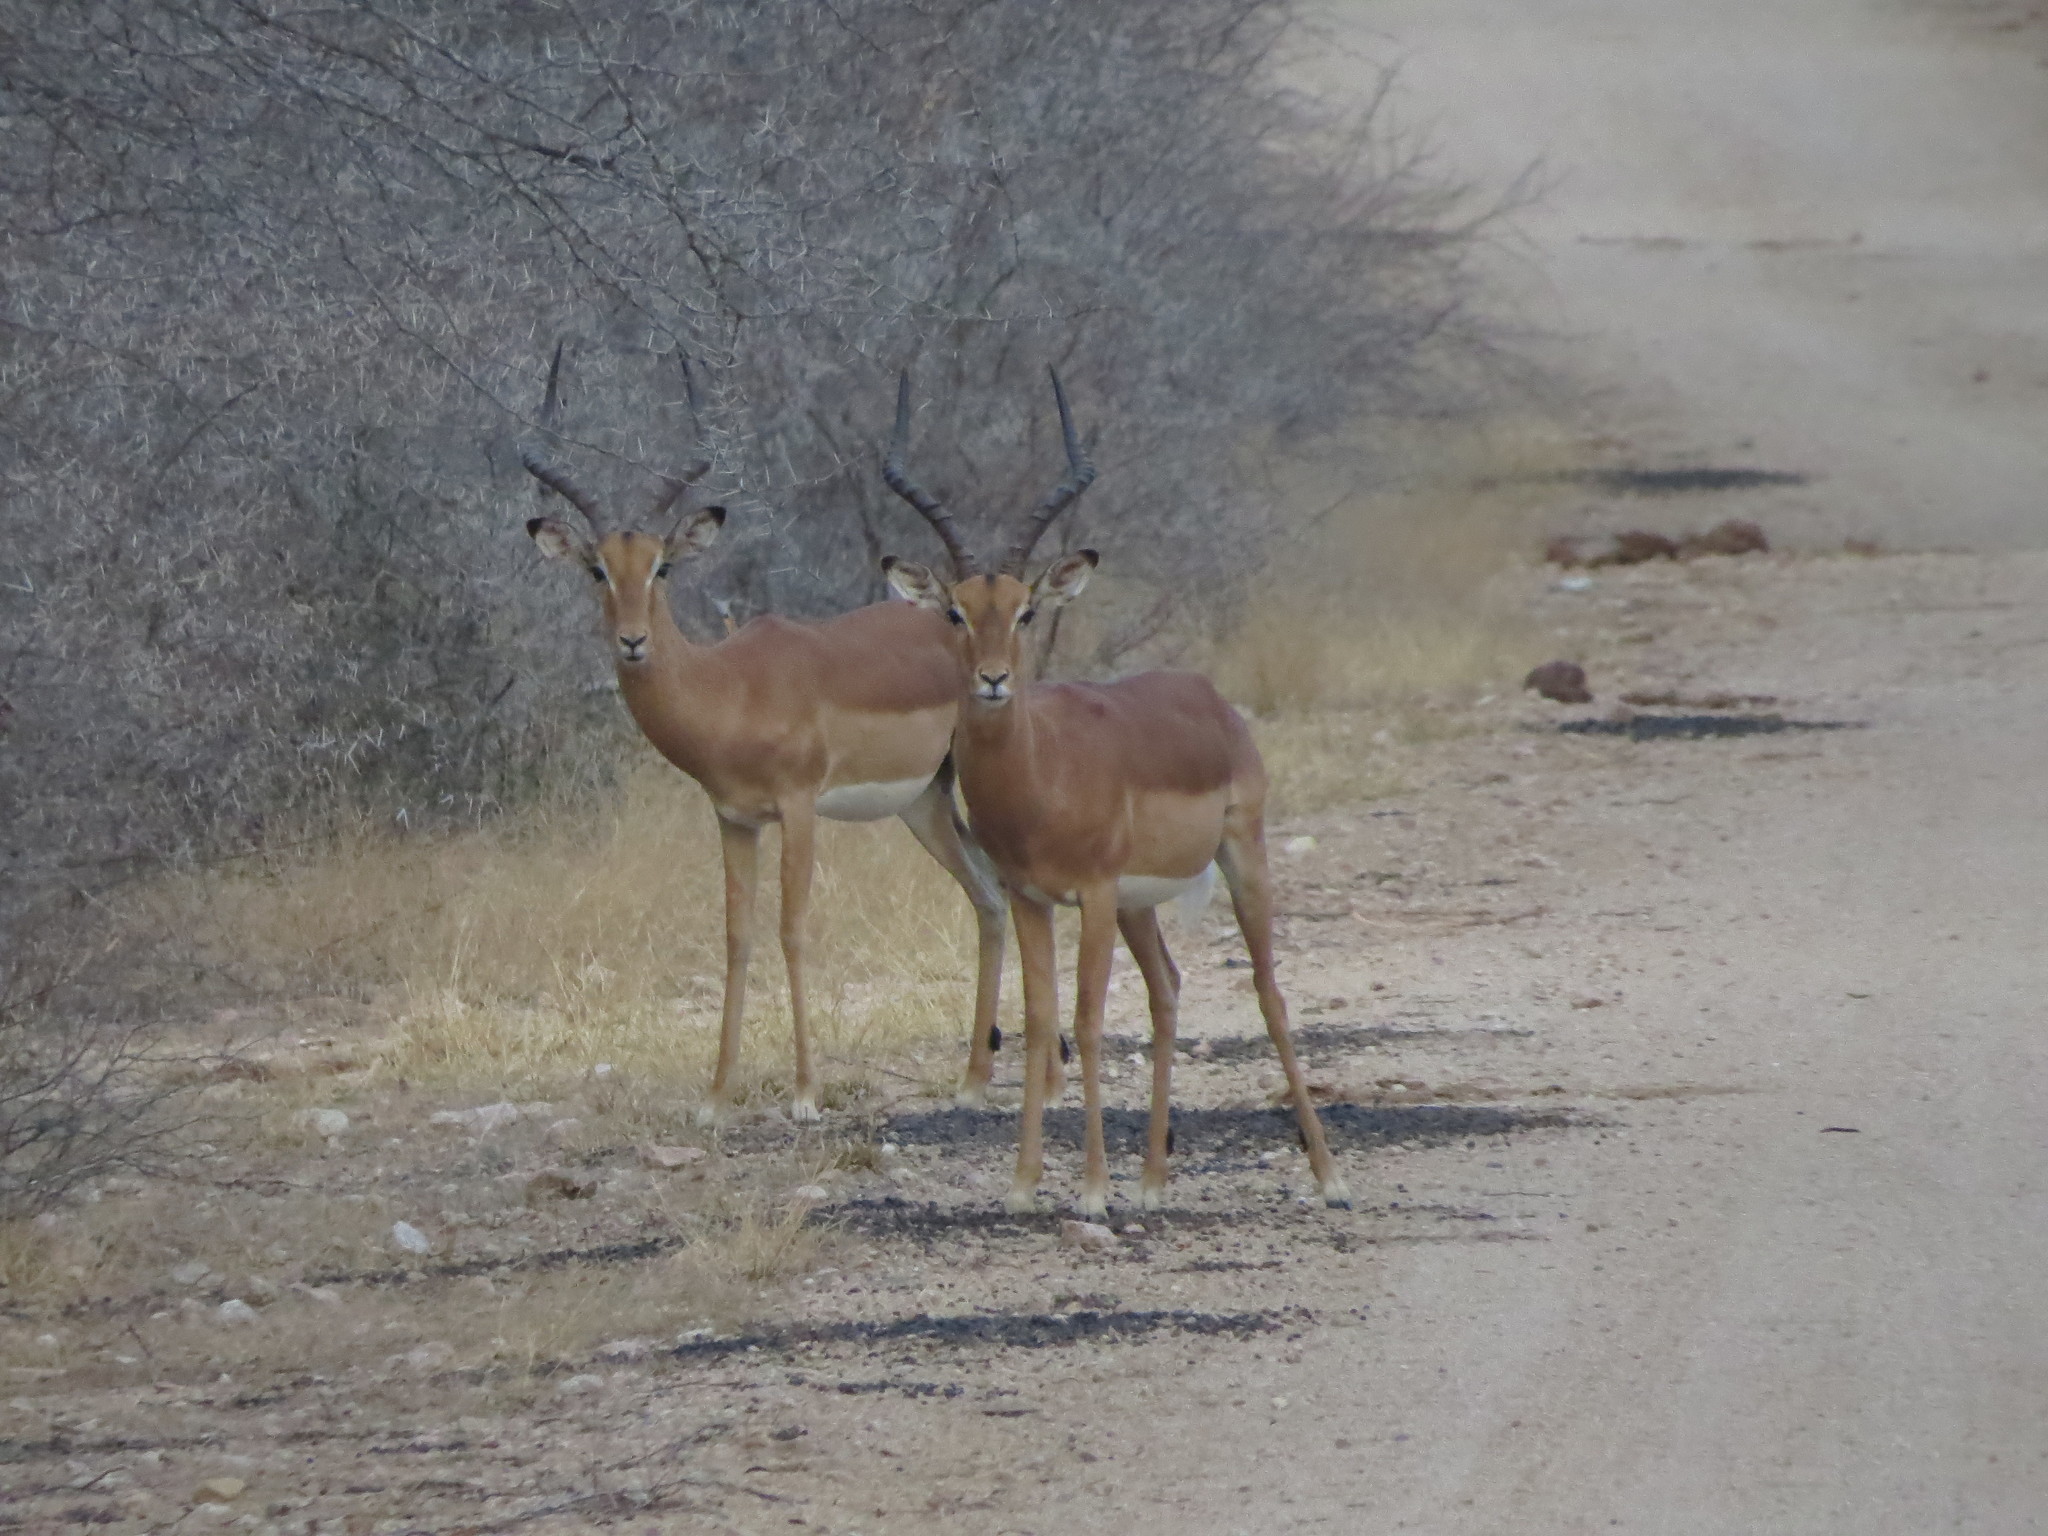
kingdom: Animalia
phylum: Chordata
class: Mammalia
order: Artiodactyla
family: Bovidae
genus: Aepyceros
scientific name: Aepyceros melampus
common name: Impala
